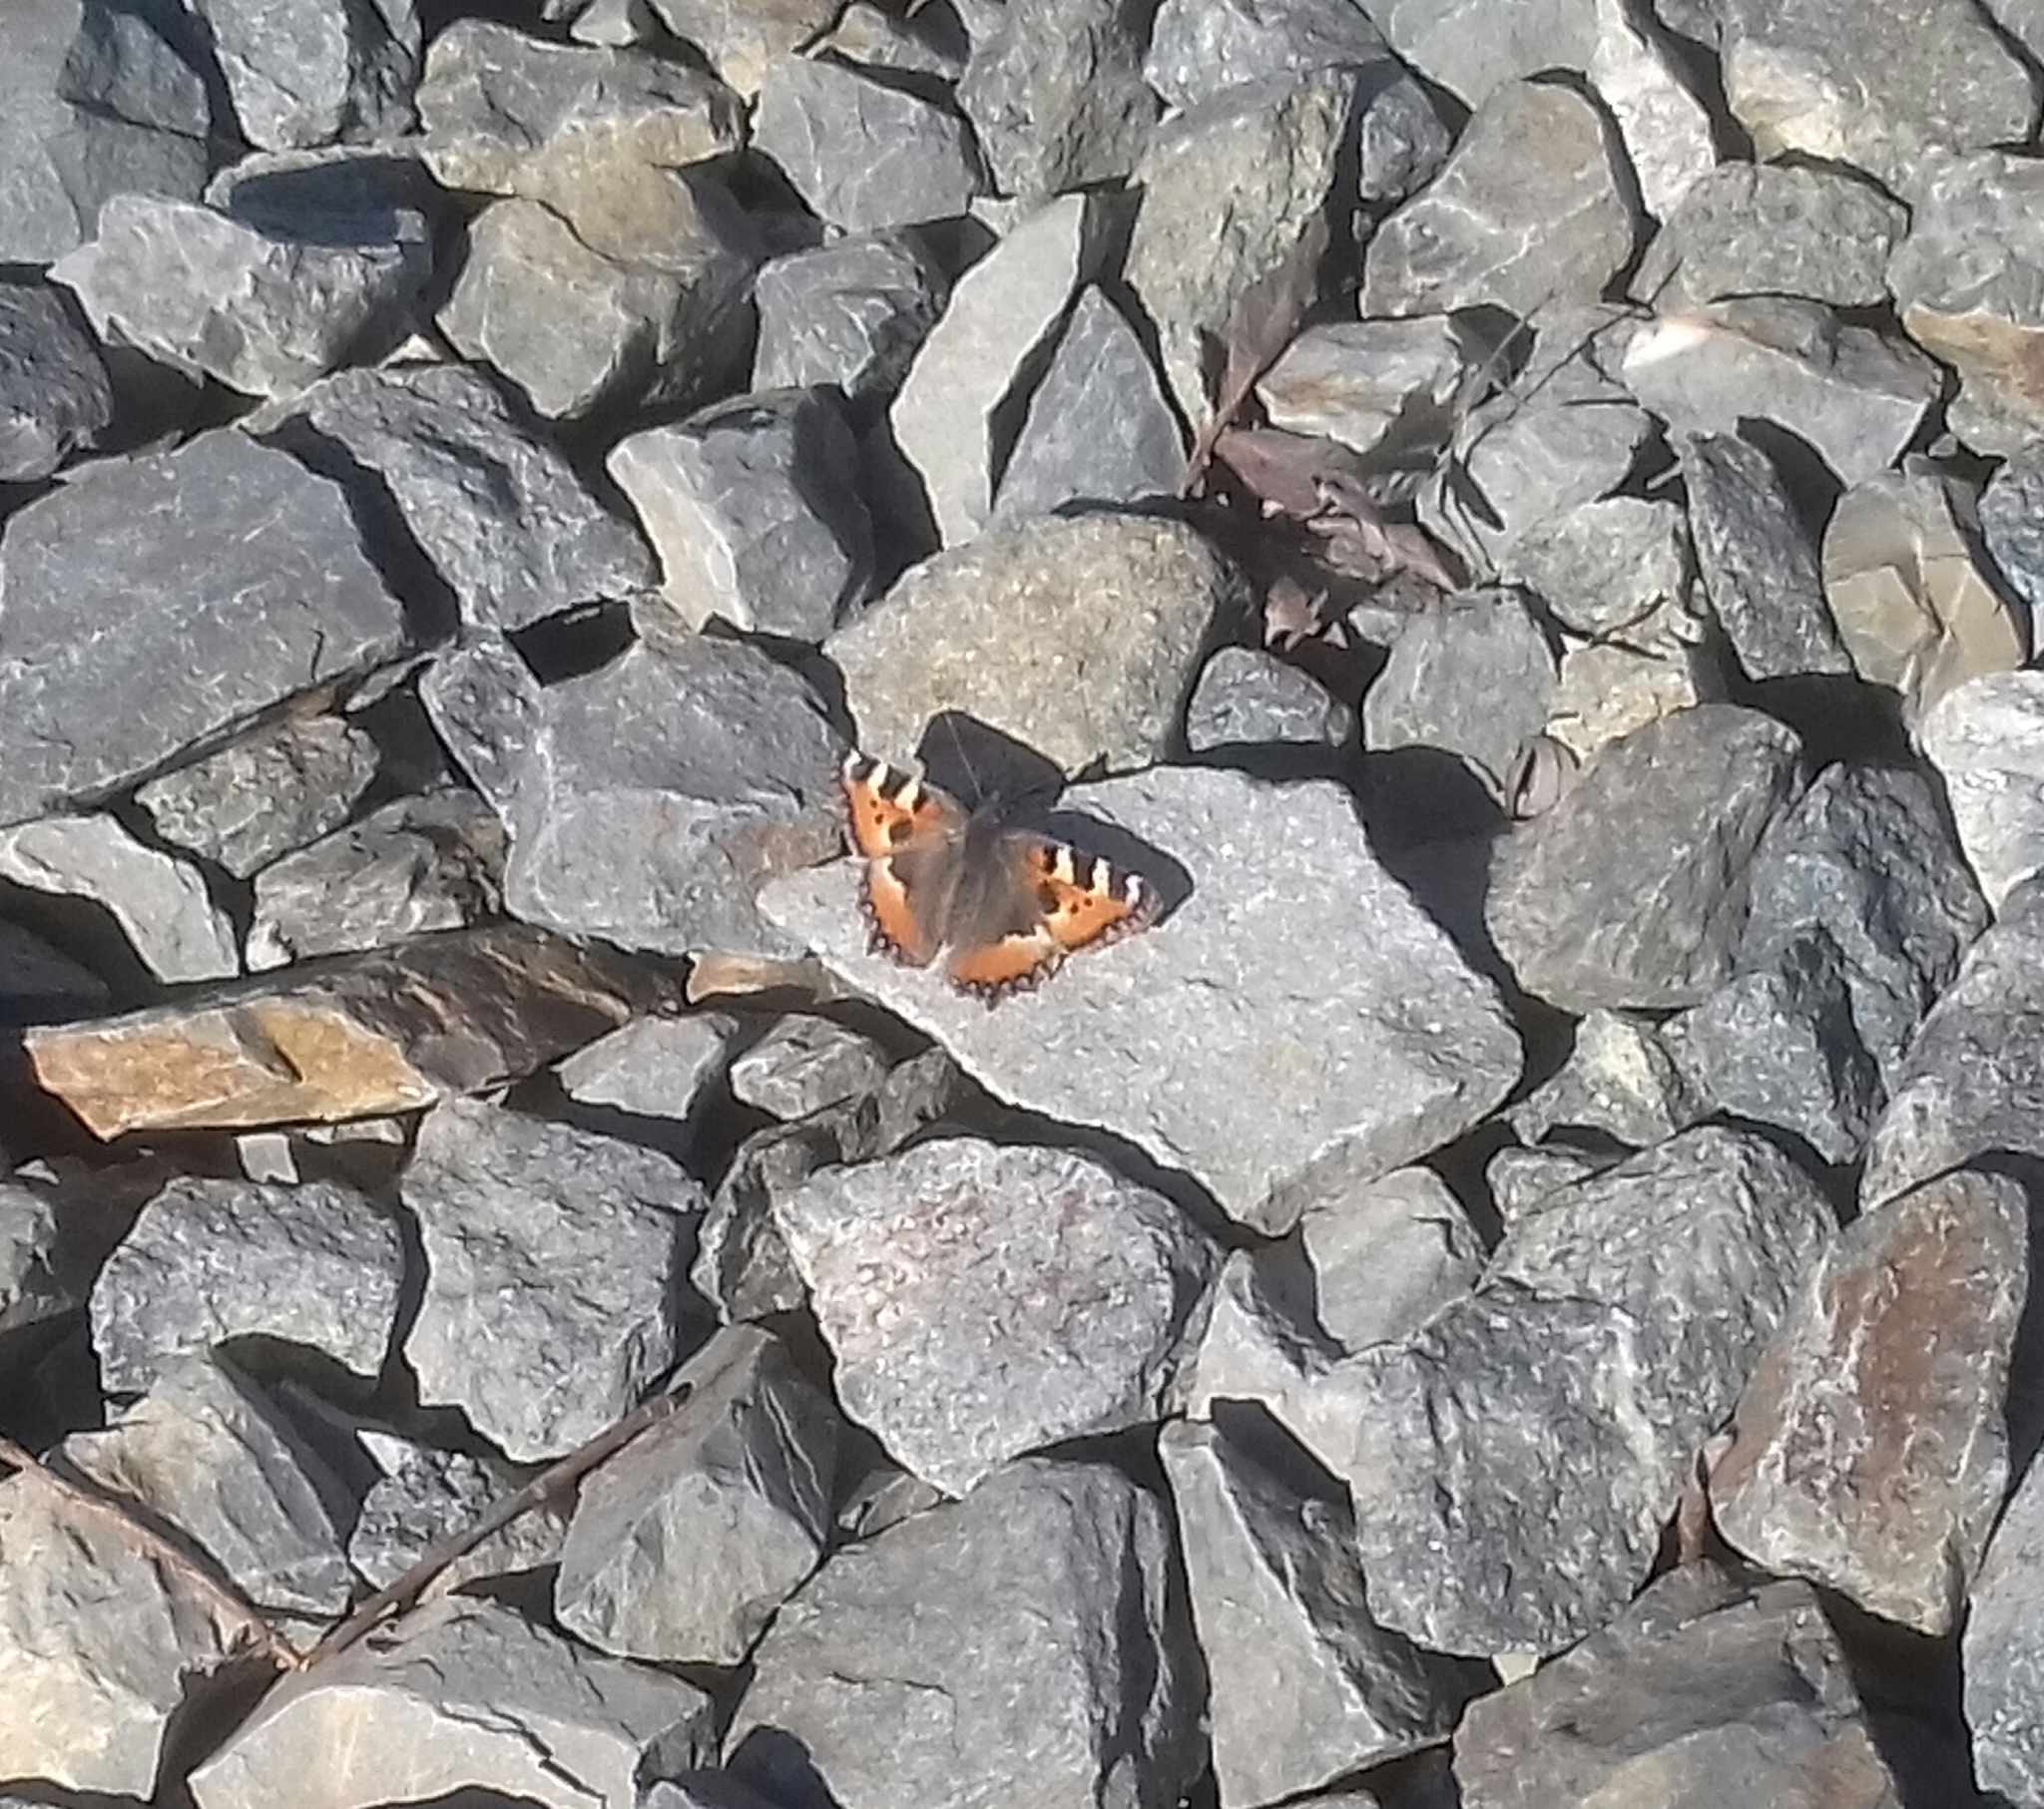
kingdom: Animalia
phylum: Arthropoda
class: Insecta
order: Lepidoptera
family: Nymphalidae
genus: Aglais
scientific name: Aglais urticae
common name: Small tortoiseshell
